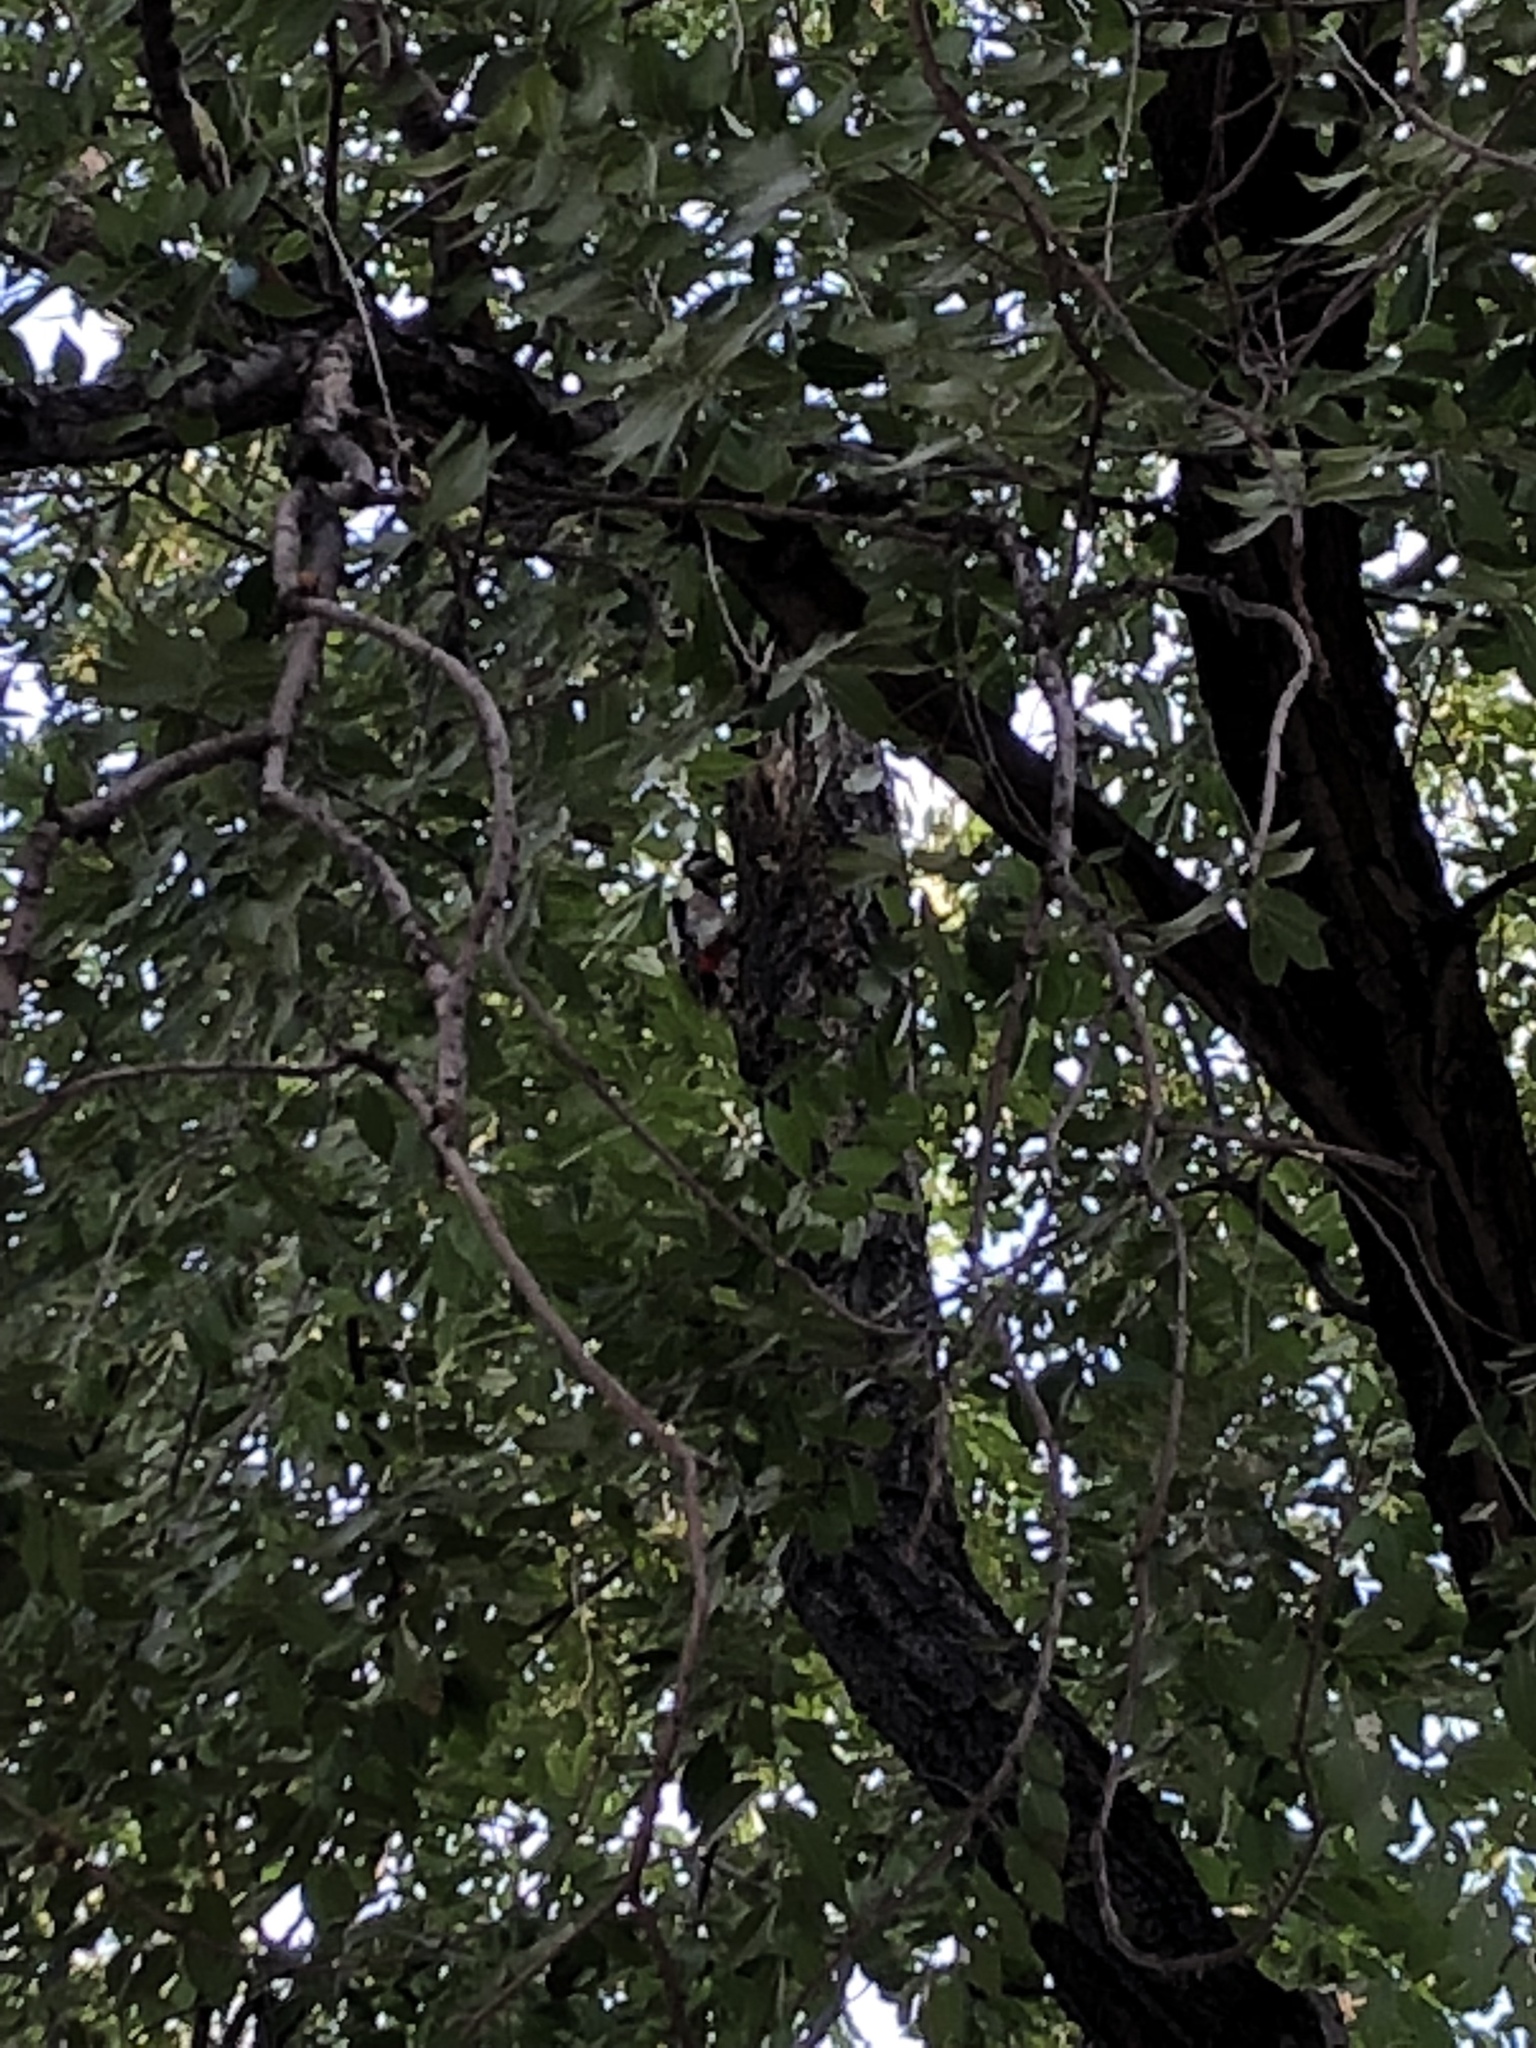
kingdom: Animalia
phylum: Chordata
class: Aves
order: Piciformes
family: Picidae
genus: Dendrocopos
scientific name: Dendrocopos major
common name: Great spotted woodpecker
